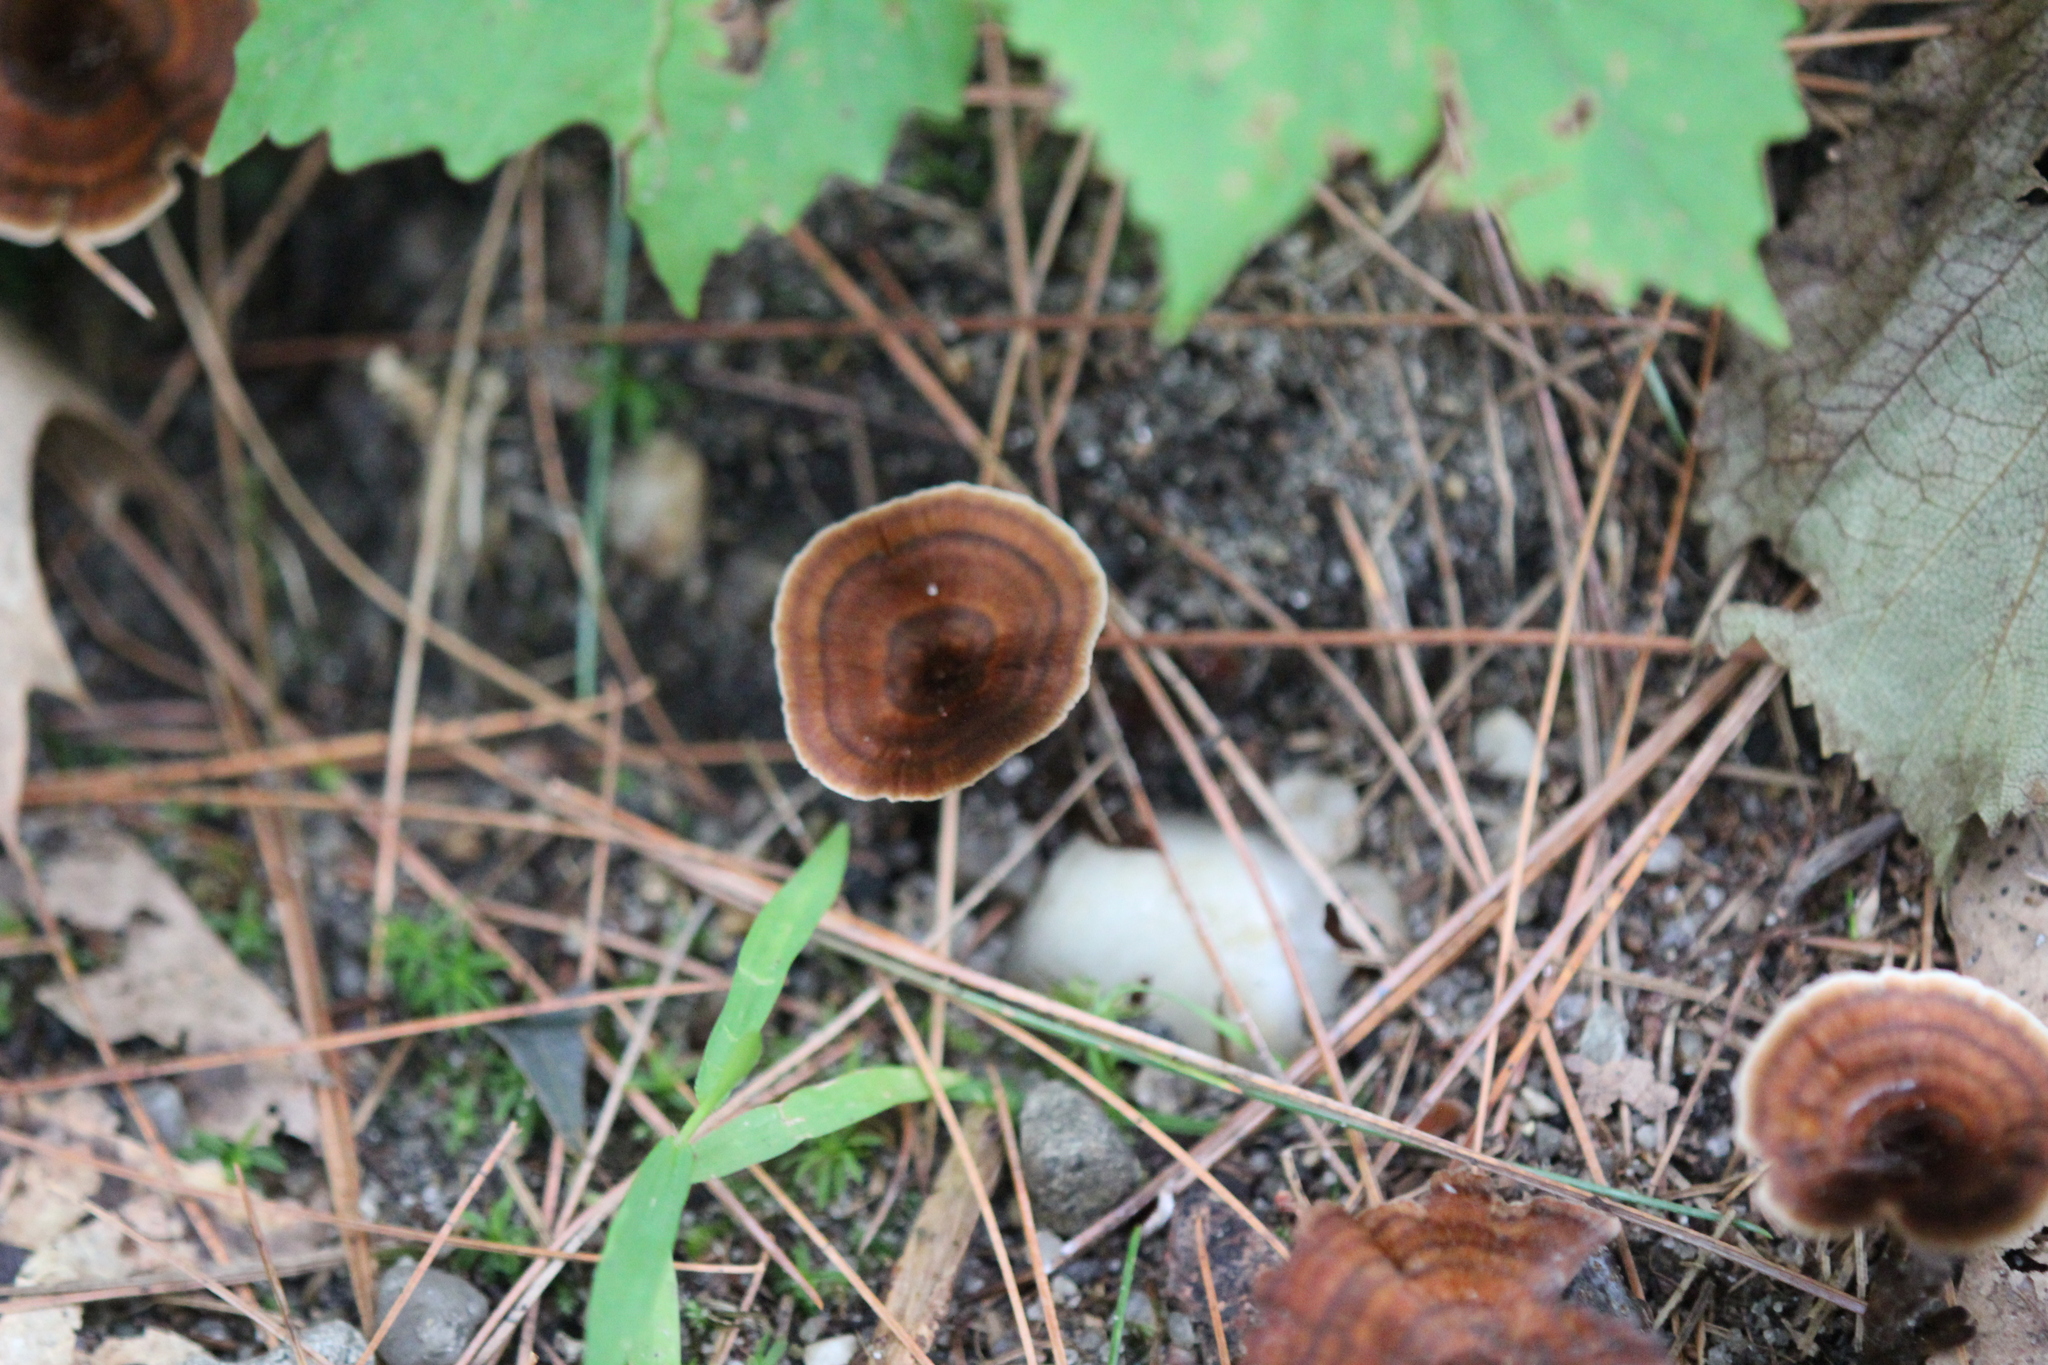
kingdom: Fungi
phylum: Basidiomycota
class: Agaricomycetes
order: Hymenochaetales
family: Hymenochaetaceae
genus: Coltricia
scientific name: Coltricia cinnamomea
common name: Shiny cinnamon polypore
